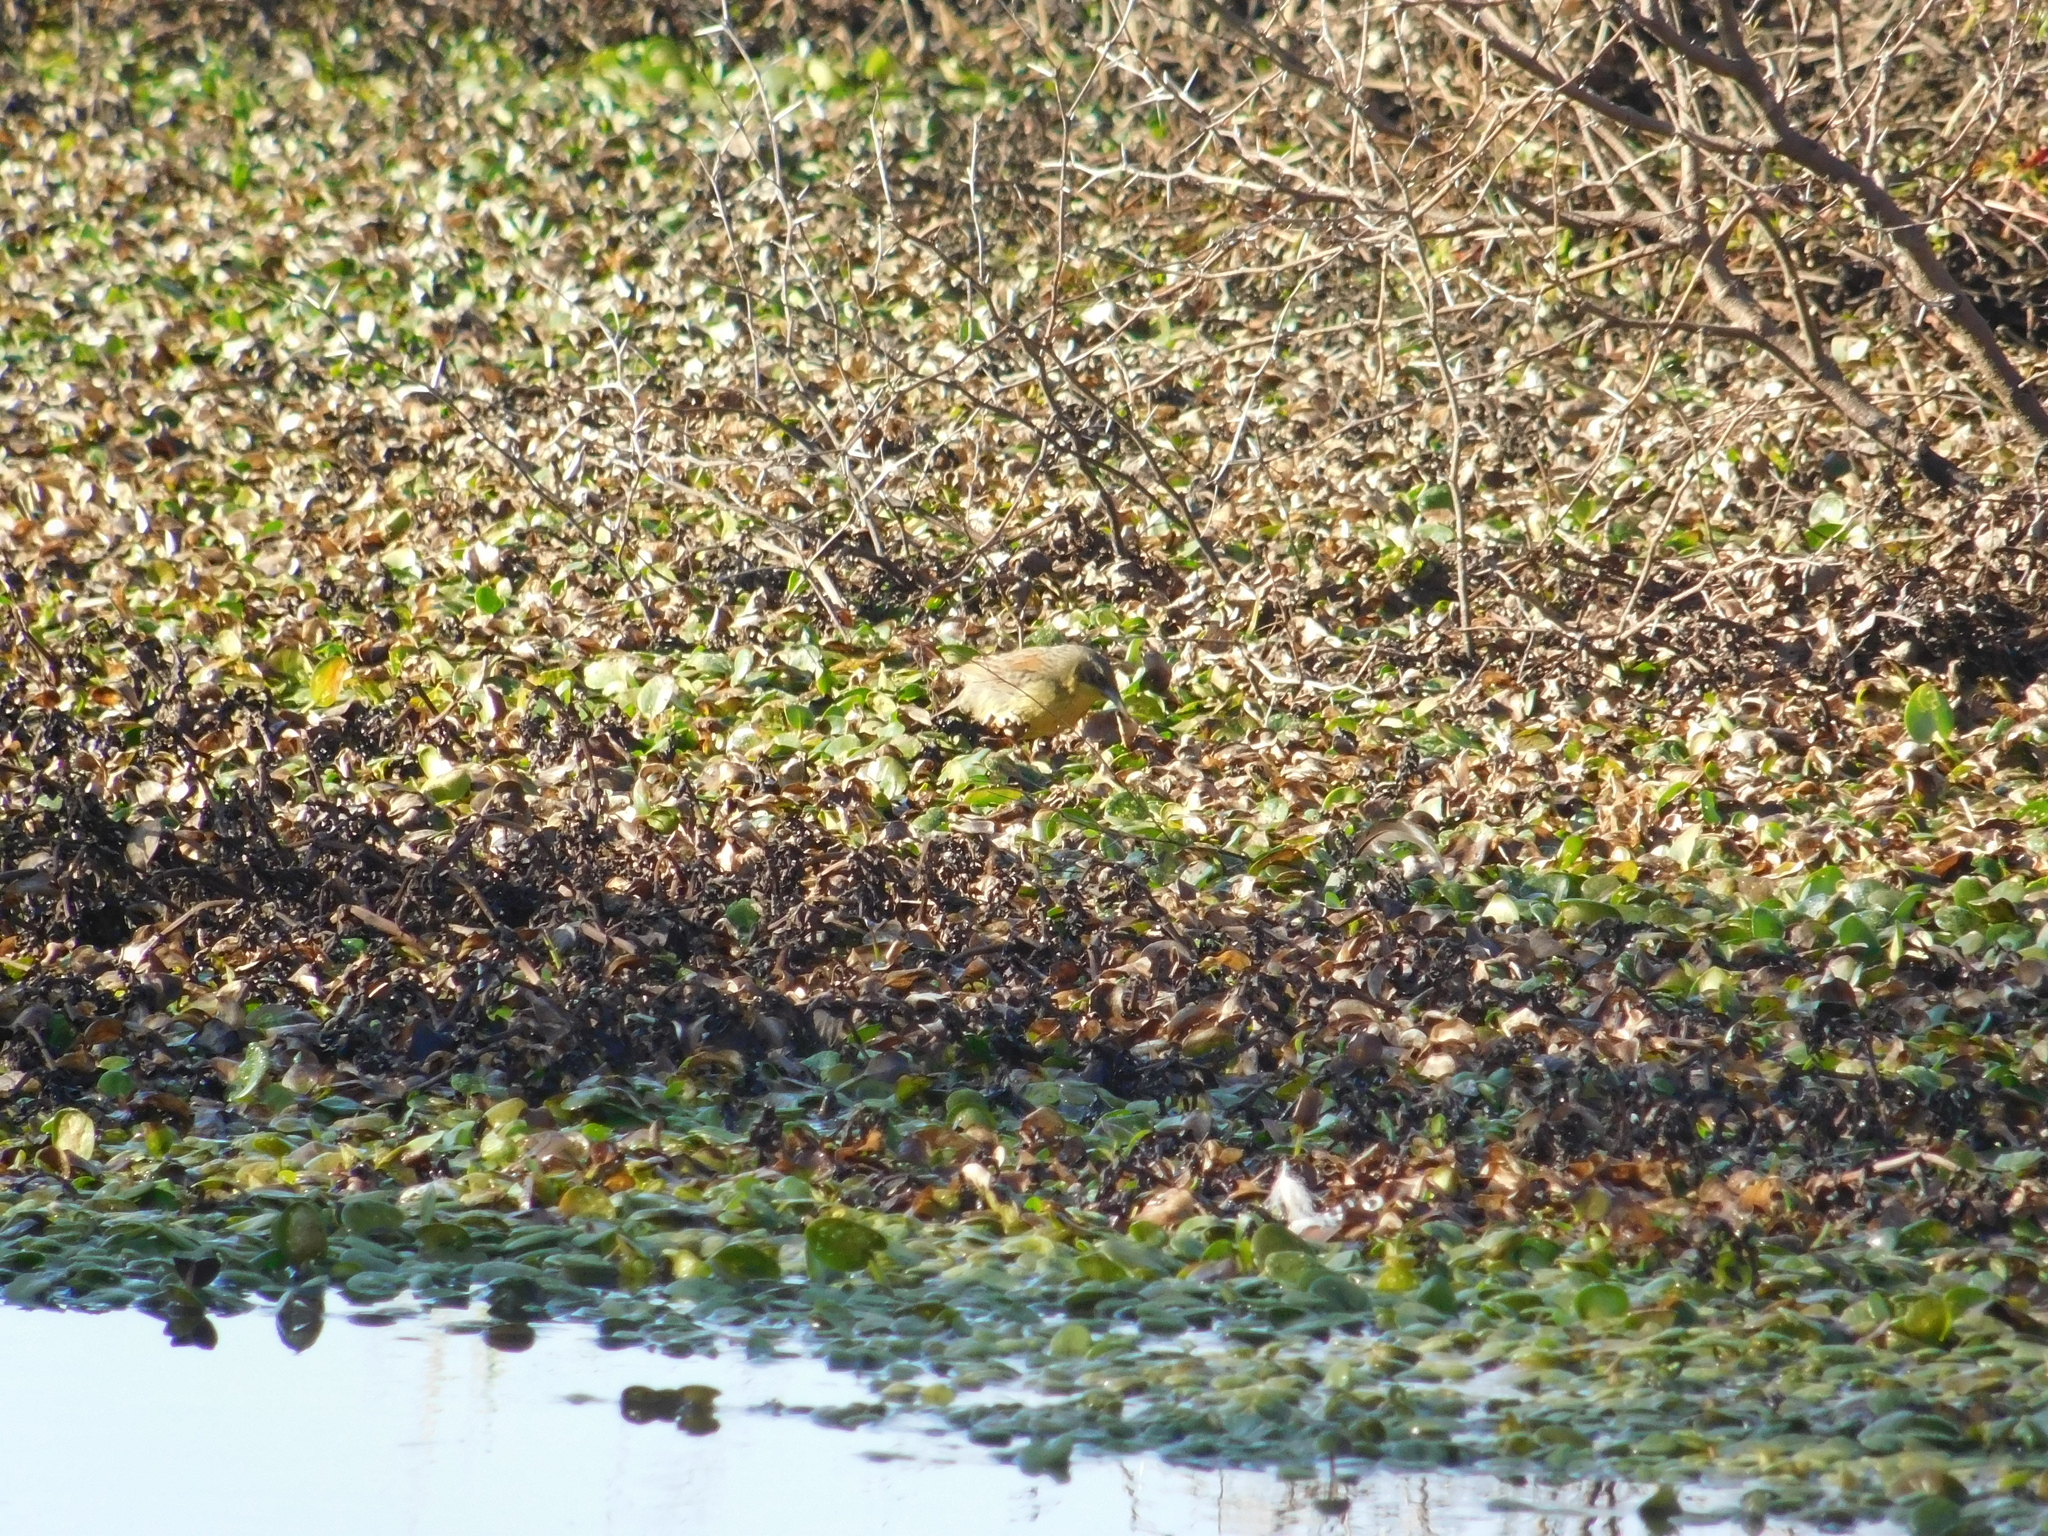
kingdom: Animalia
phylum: Chordata
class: Aves
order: Passeriformes
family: Icteridae
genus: Agelasticus
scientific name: Agelasticus cyanopus
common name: Unicolored blackbird
